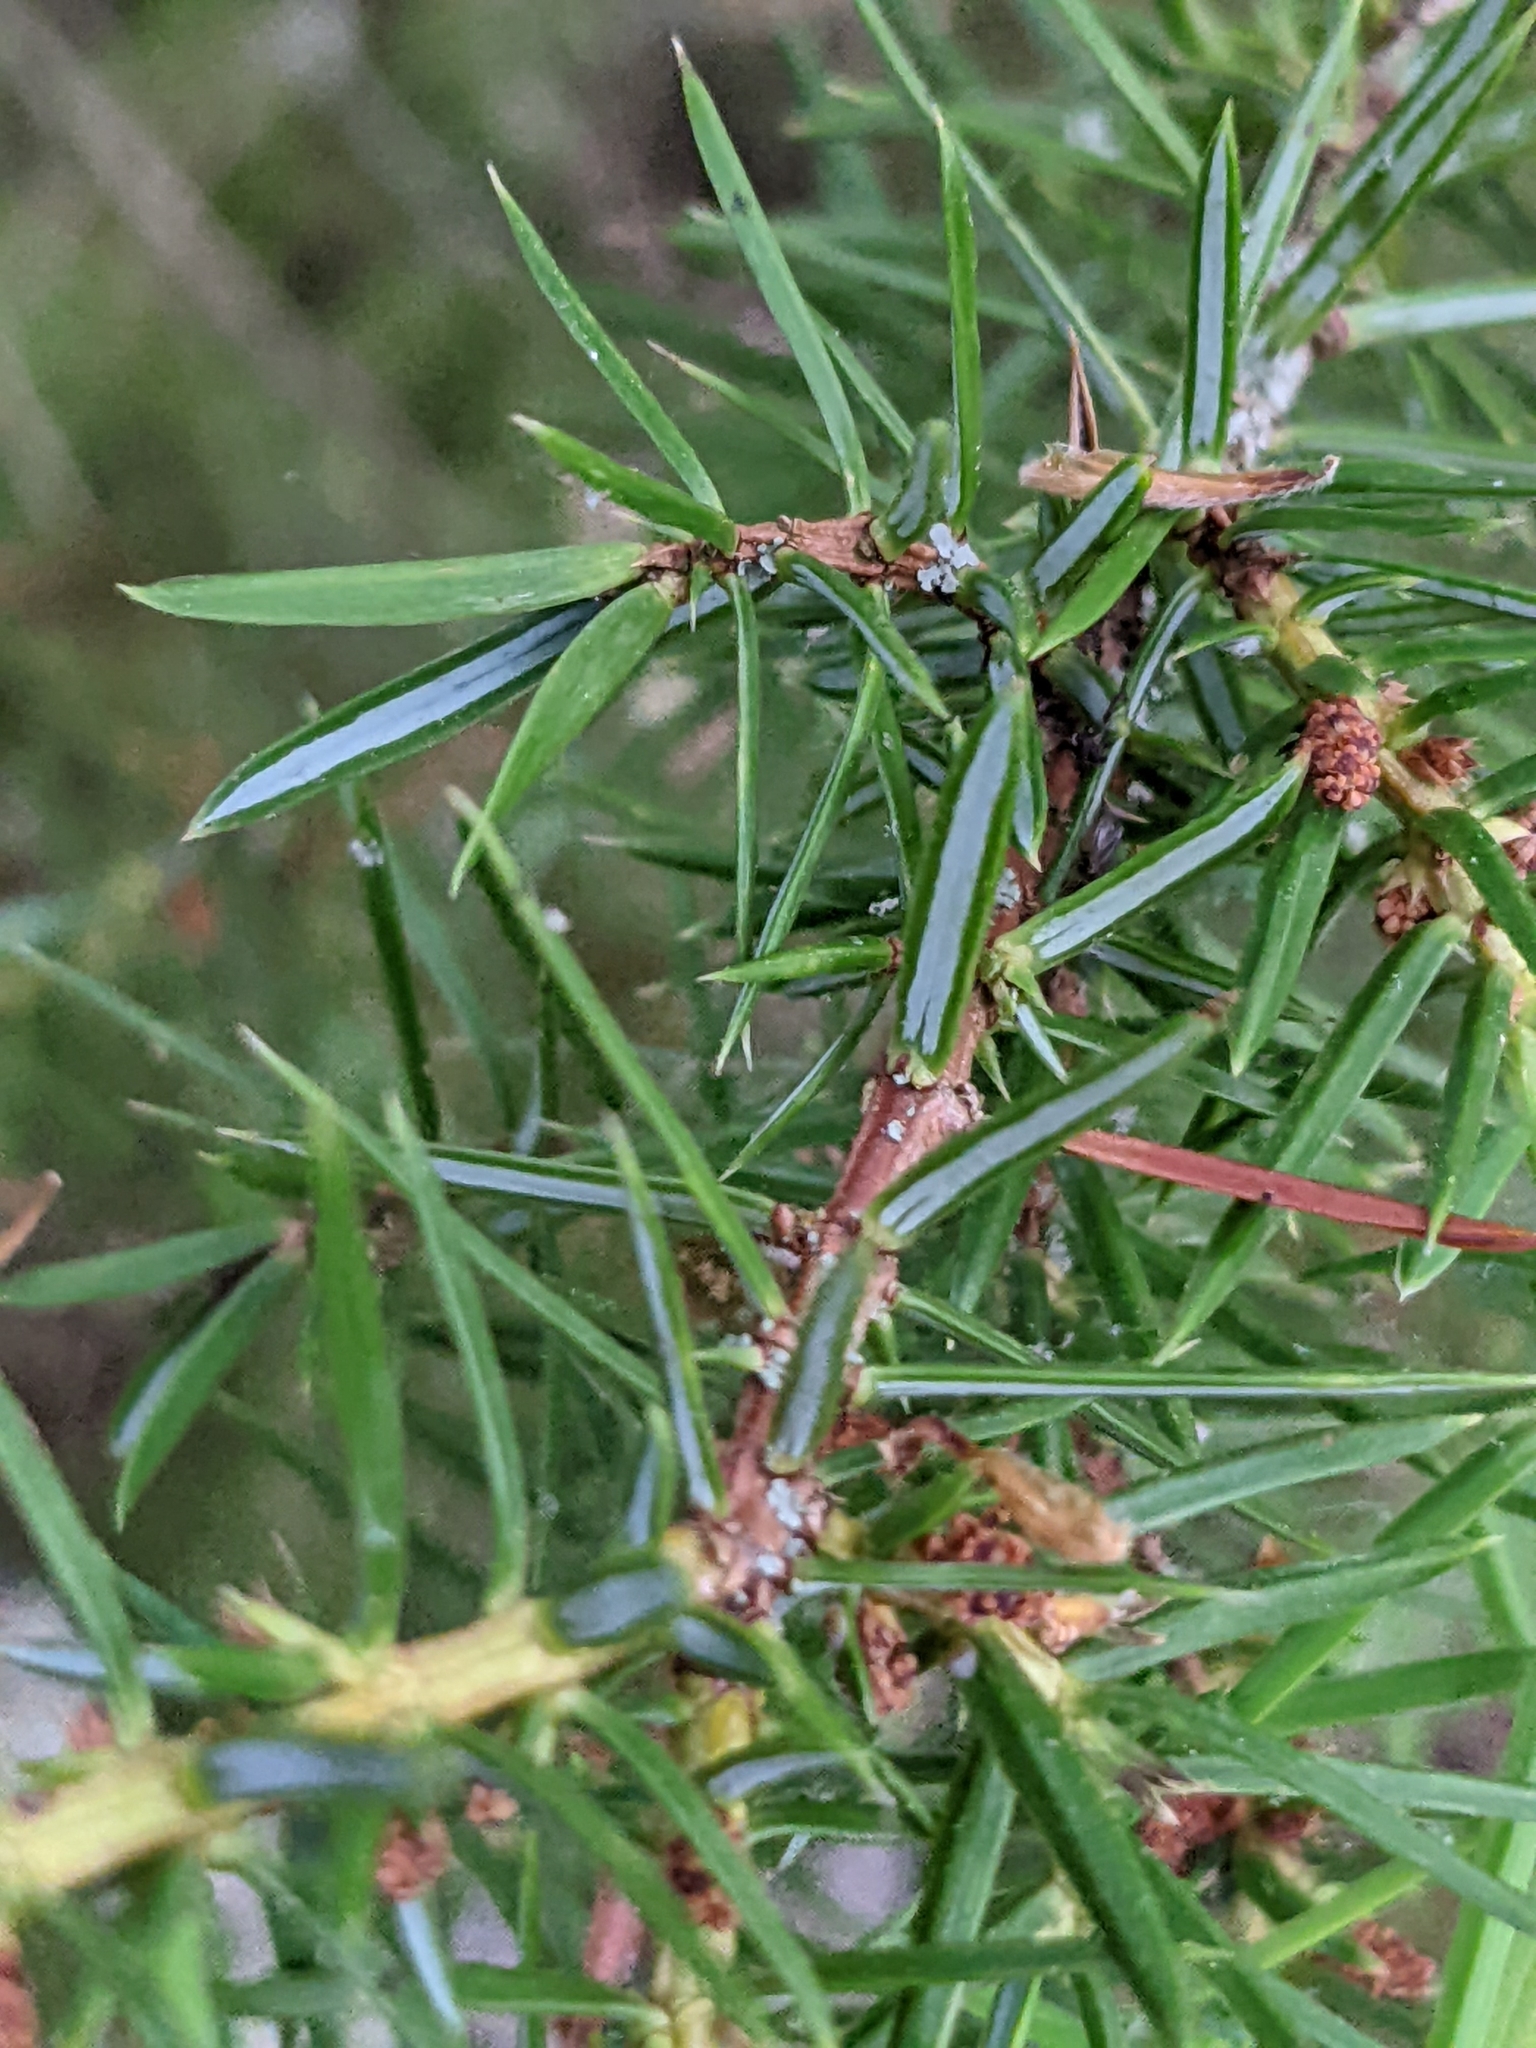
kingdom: Plantae
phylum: Tracheophyta
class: Pinopsida
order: Pinales
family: Cupressaceae
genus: Juniperus
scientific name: Juniperus communis
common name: Common juniper
